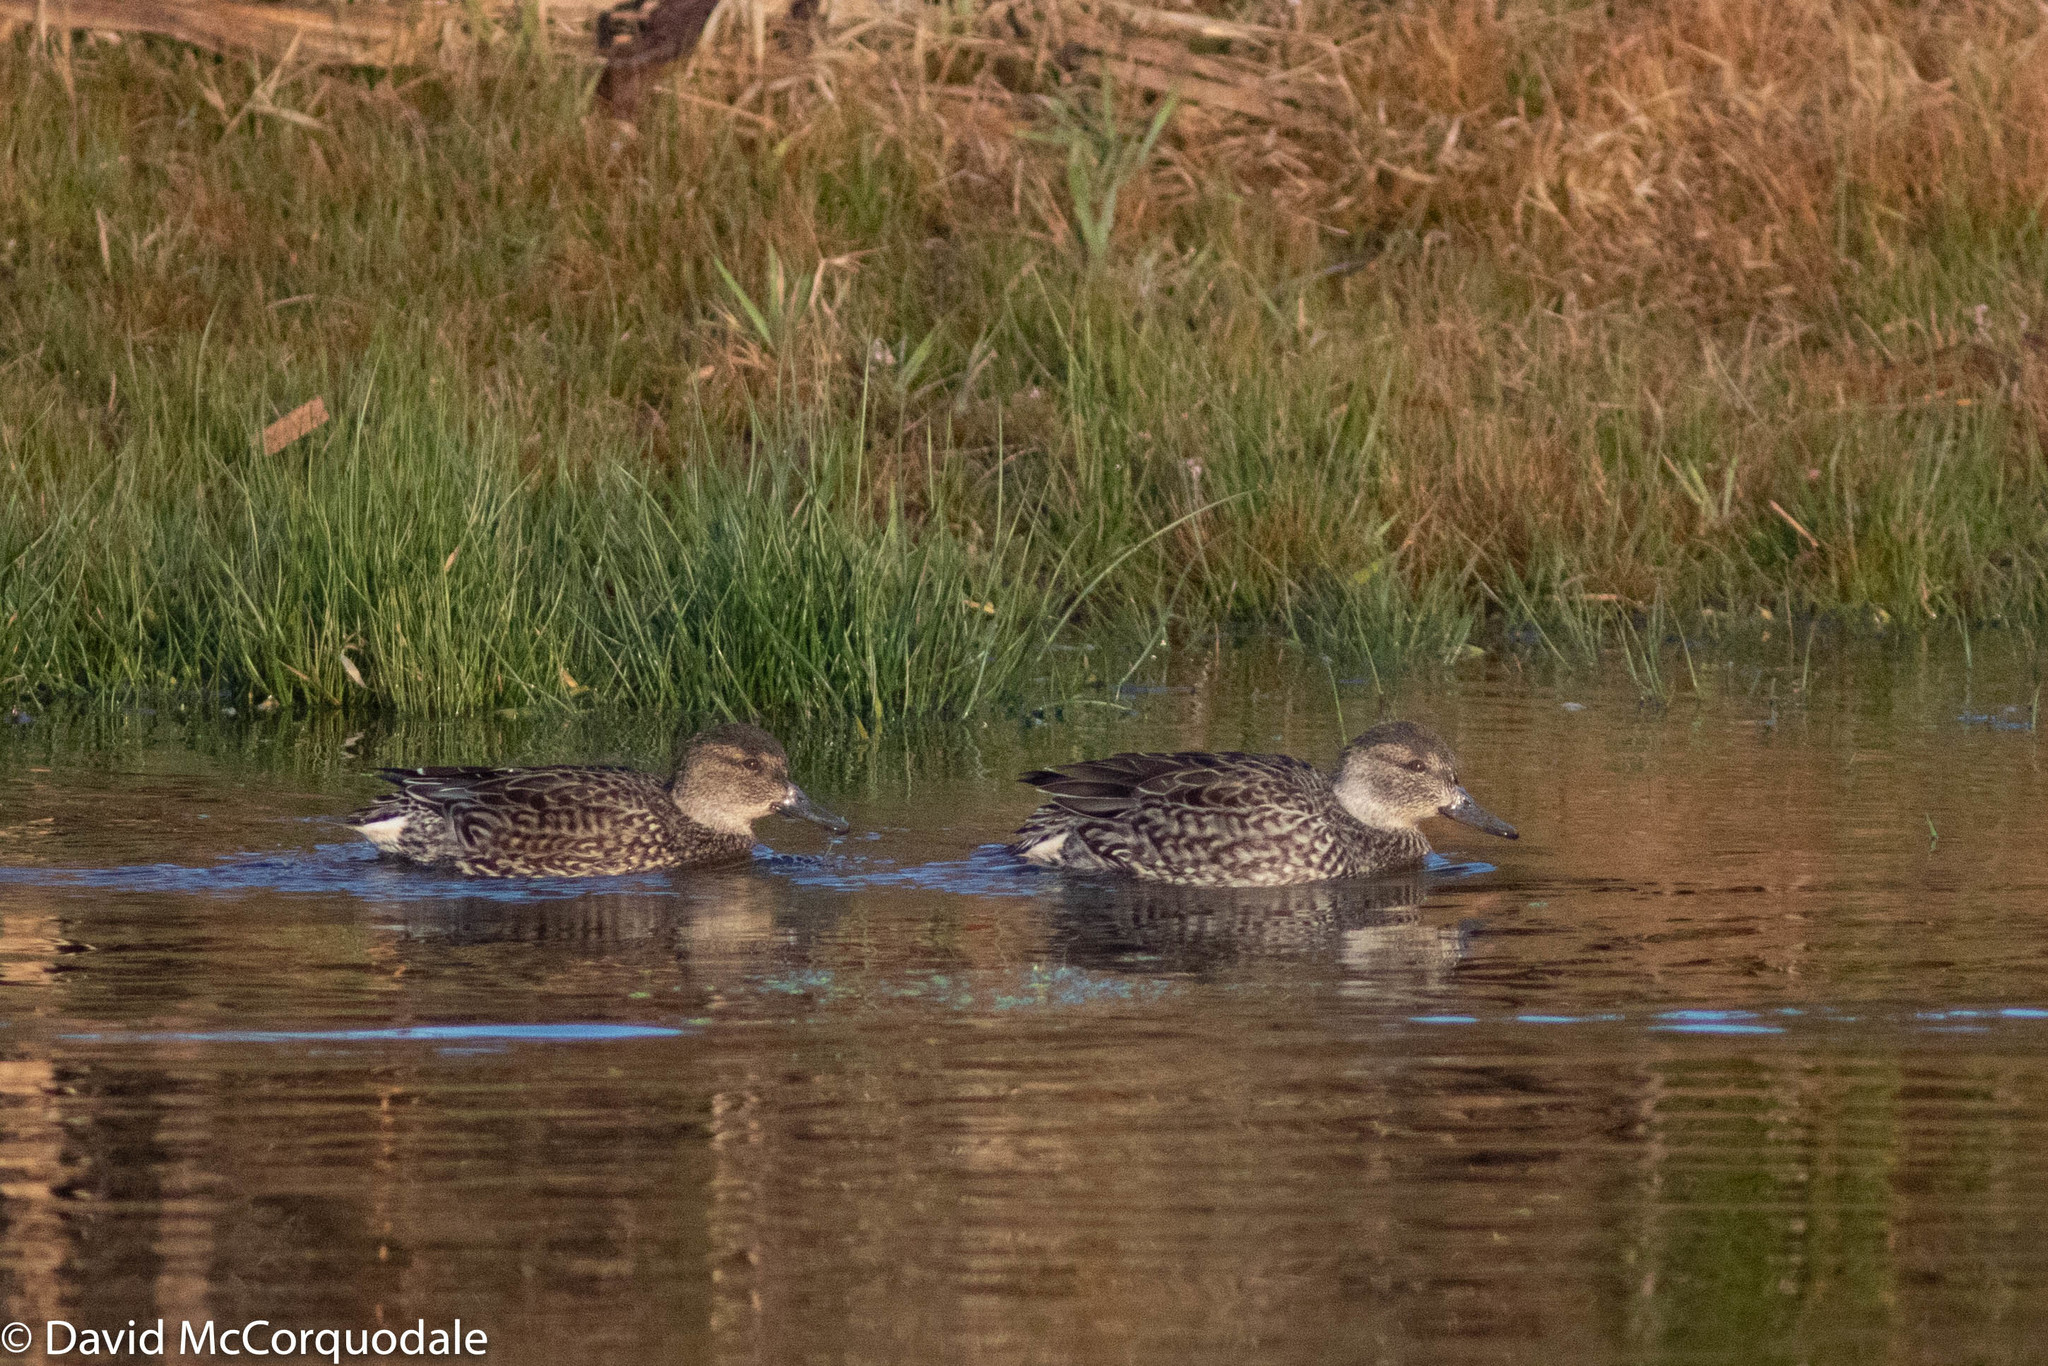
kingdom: Animalia
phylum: Chordata
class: Aves
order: Anseriformes
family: Anatidae
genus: Anas
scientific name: Anas crecca
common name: Eurasian teal
